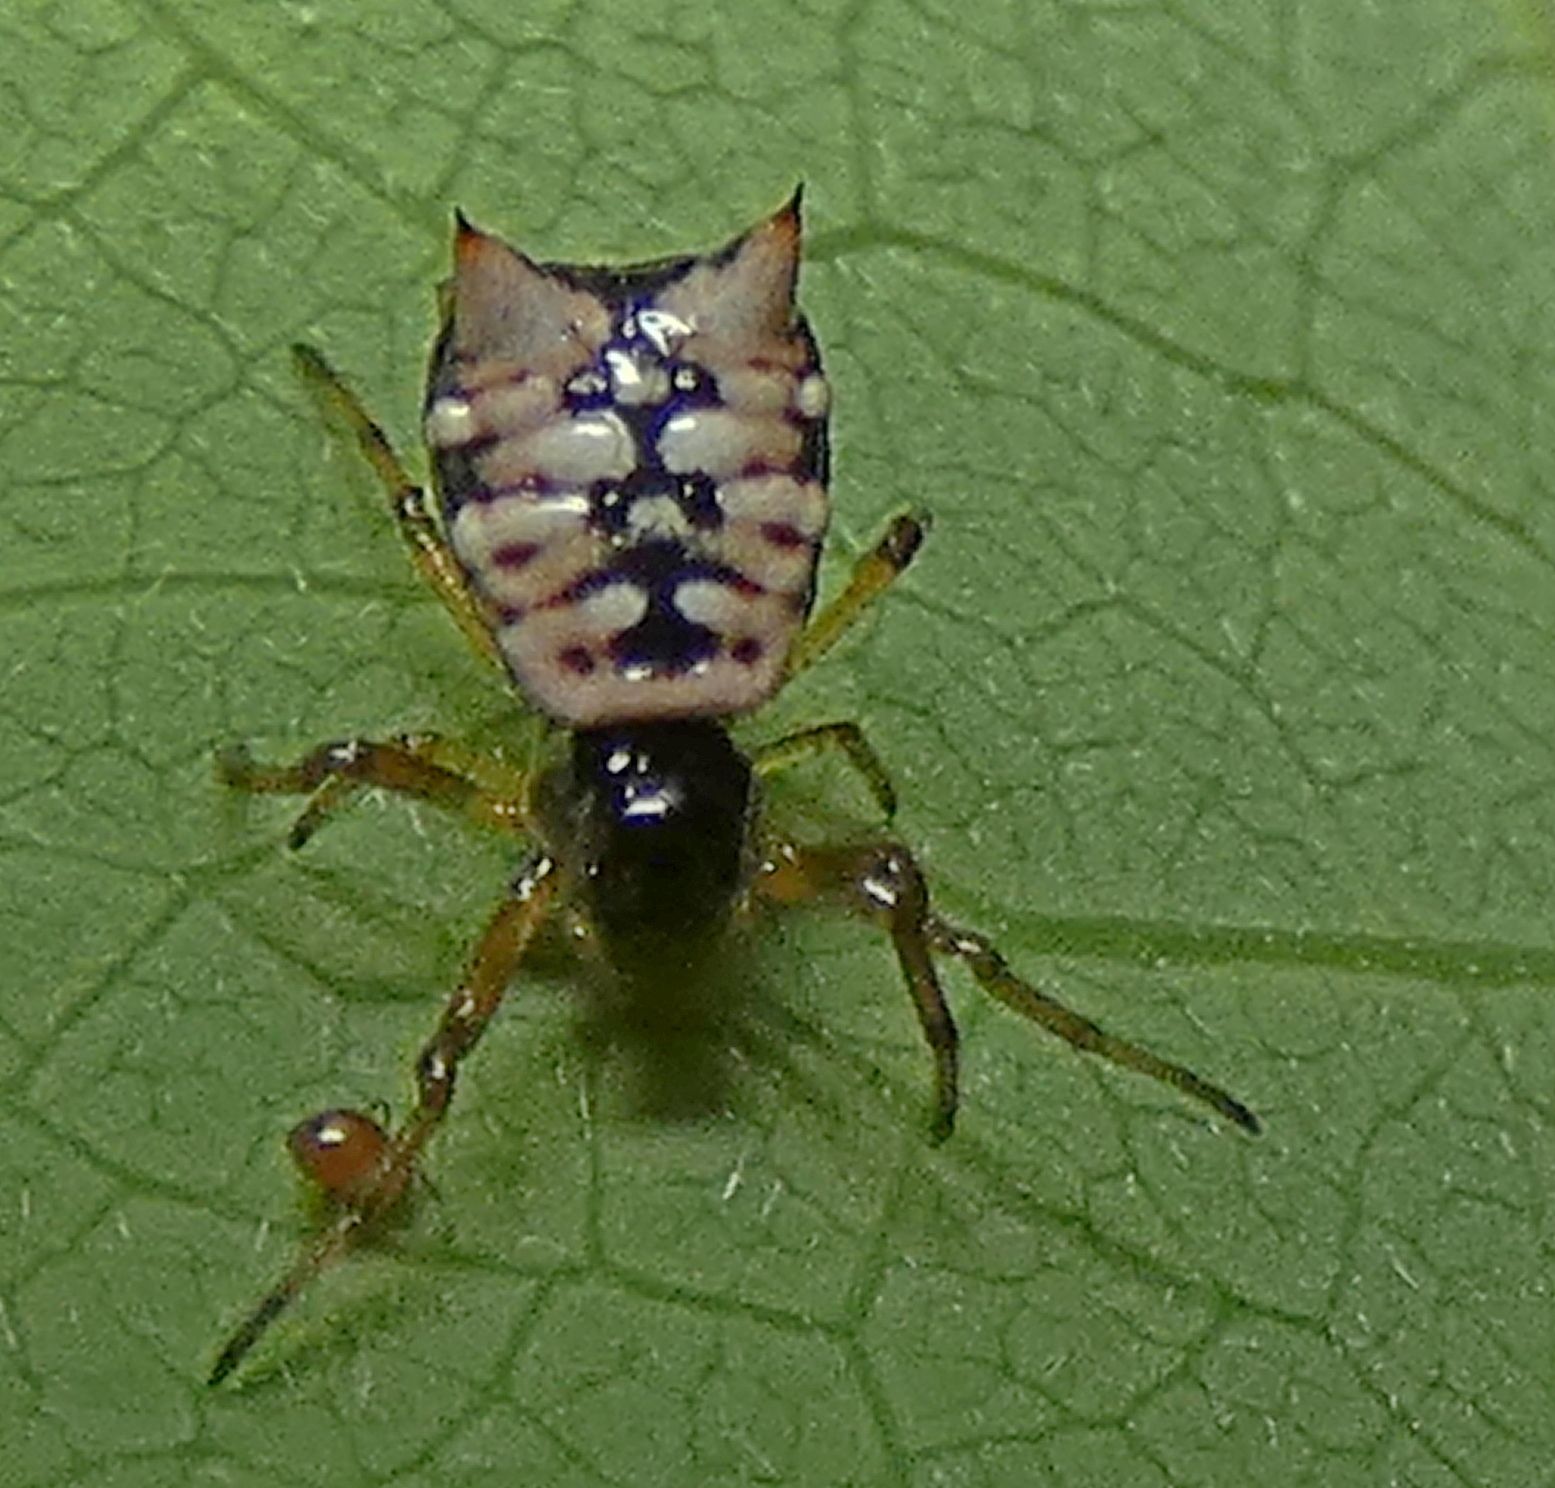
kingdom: Animalia
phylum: Arthropoda
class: Arachnida
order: Araneae
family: Araneidae
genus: Micrathena
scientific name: Micrathena patruelis
